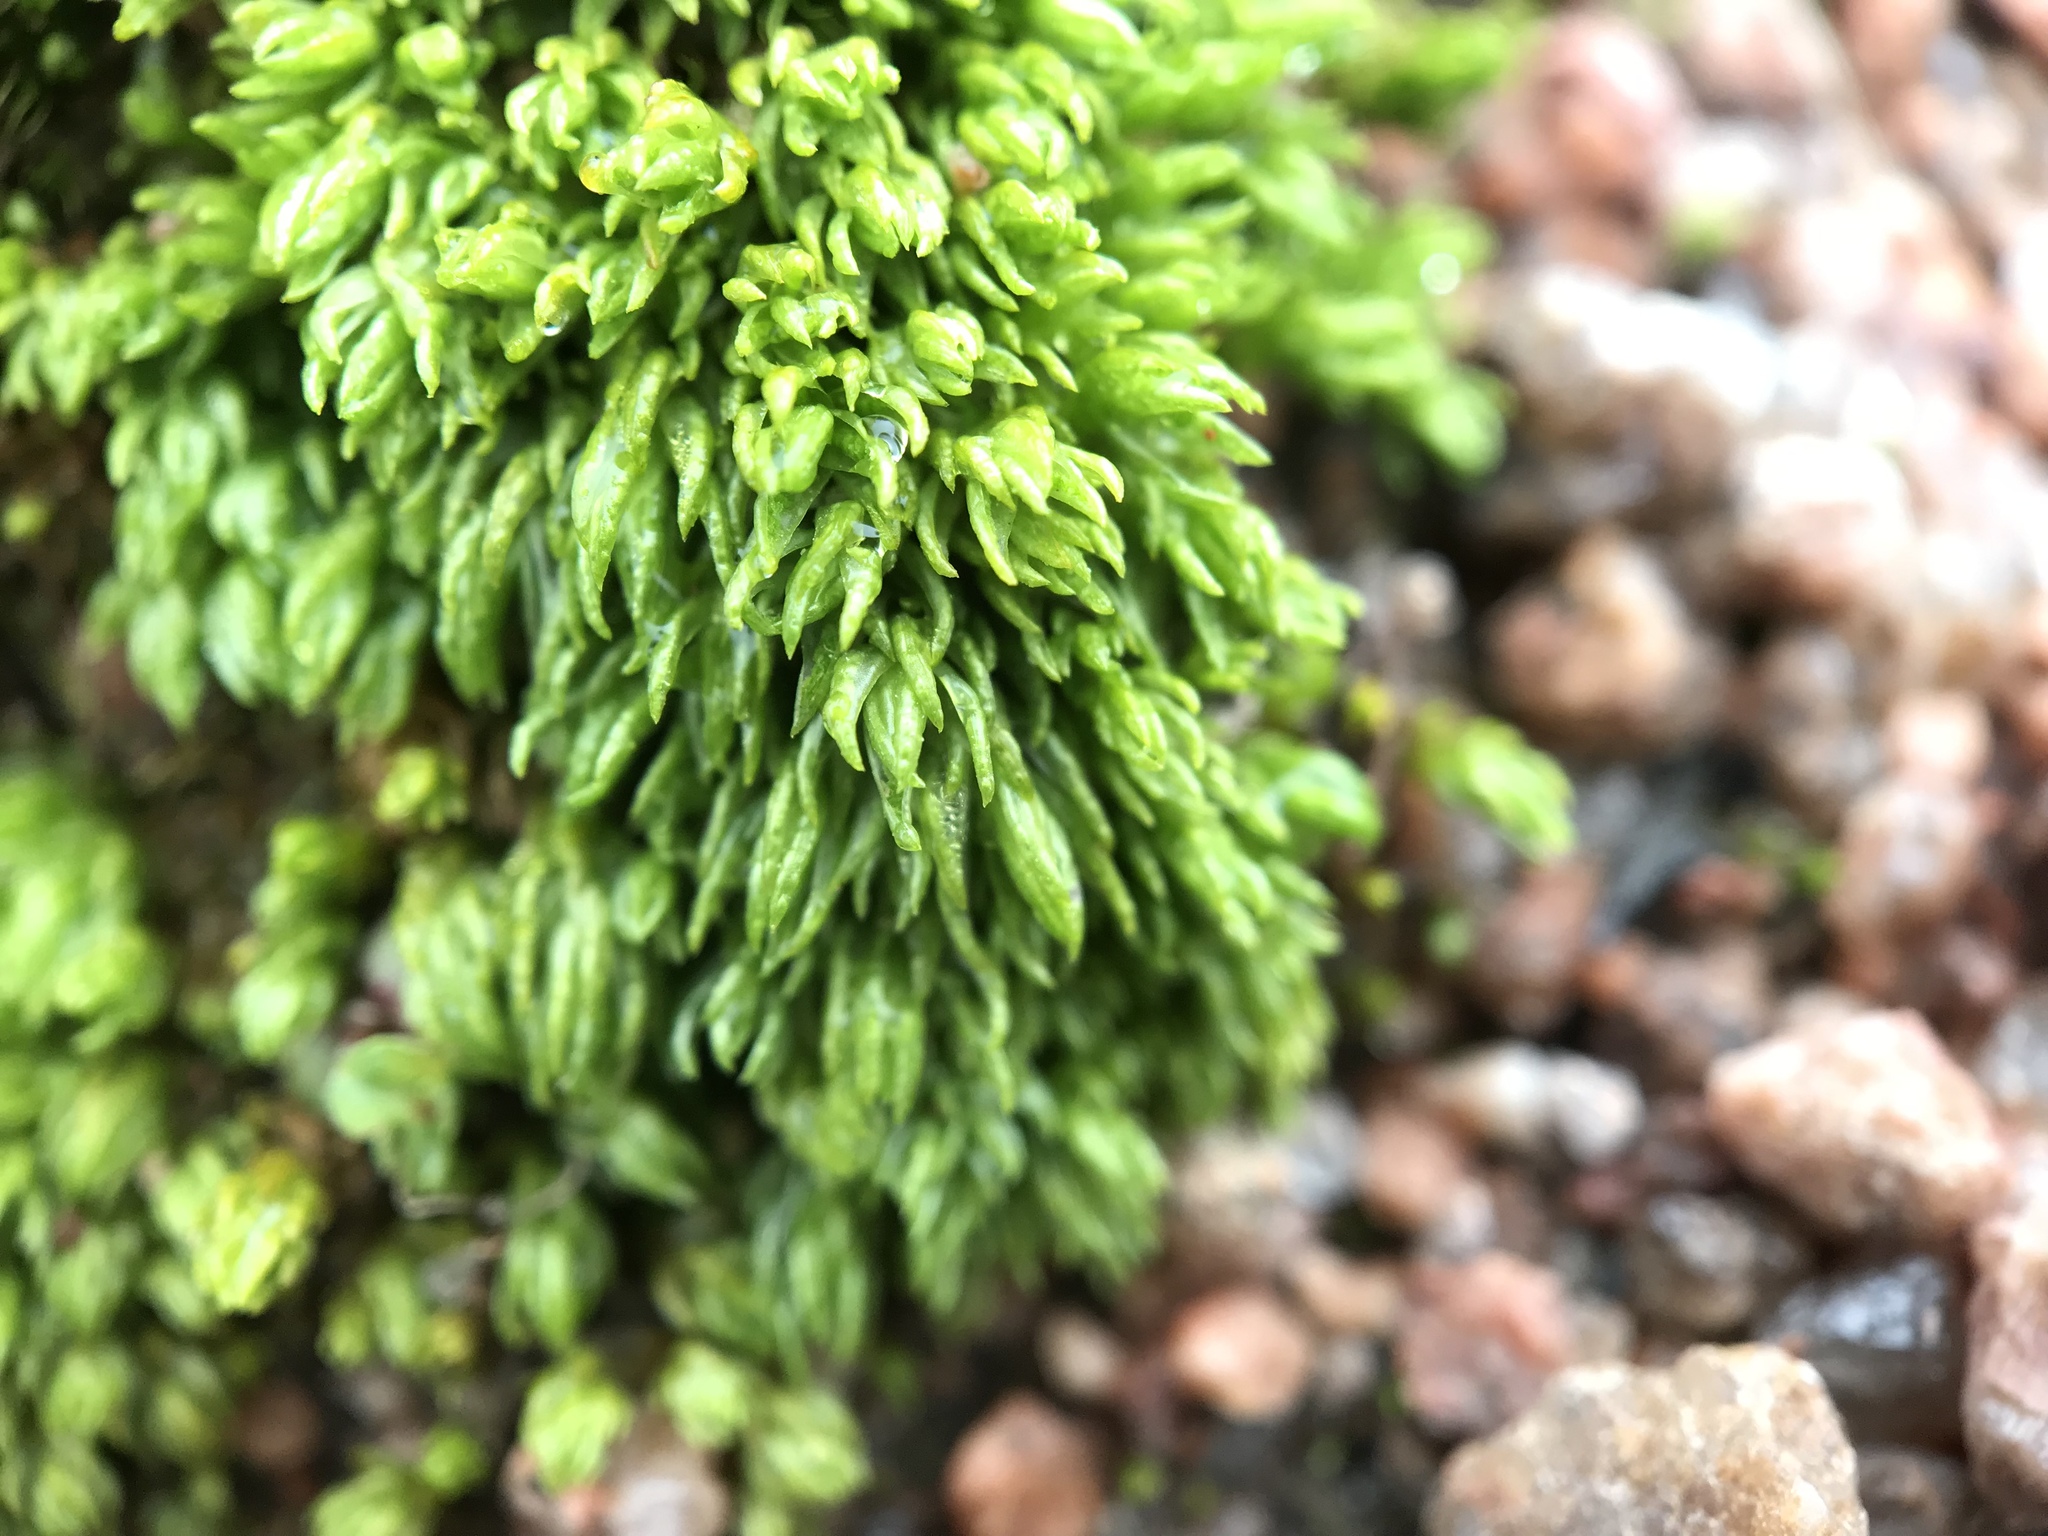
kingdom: Plantae
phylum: Bryophyta
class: Polytrichopsida
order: Polytrichales
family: Polytrichaceae
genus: Oligotrichum
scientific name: Oligotrichum hercynicum
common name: Hercynian hair moss
